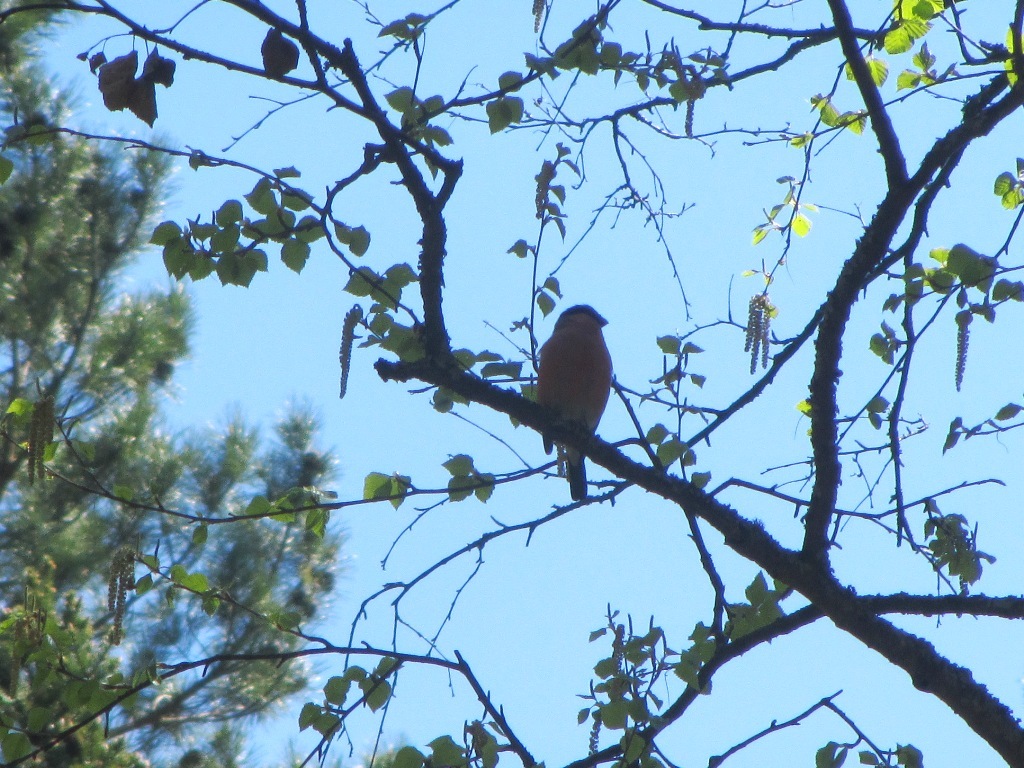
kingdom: Animalia
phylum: Chordata
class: Aves
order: Passeriformes
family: Fringillidae
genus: Pyrrhula
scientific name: Pyrrhula pyrrhula
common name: Eurasian bullfinch
